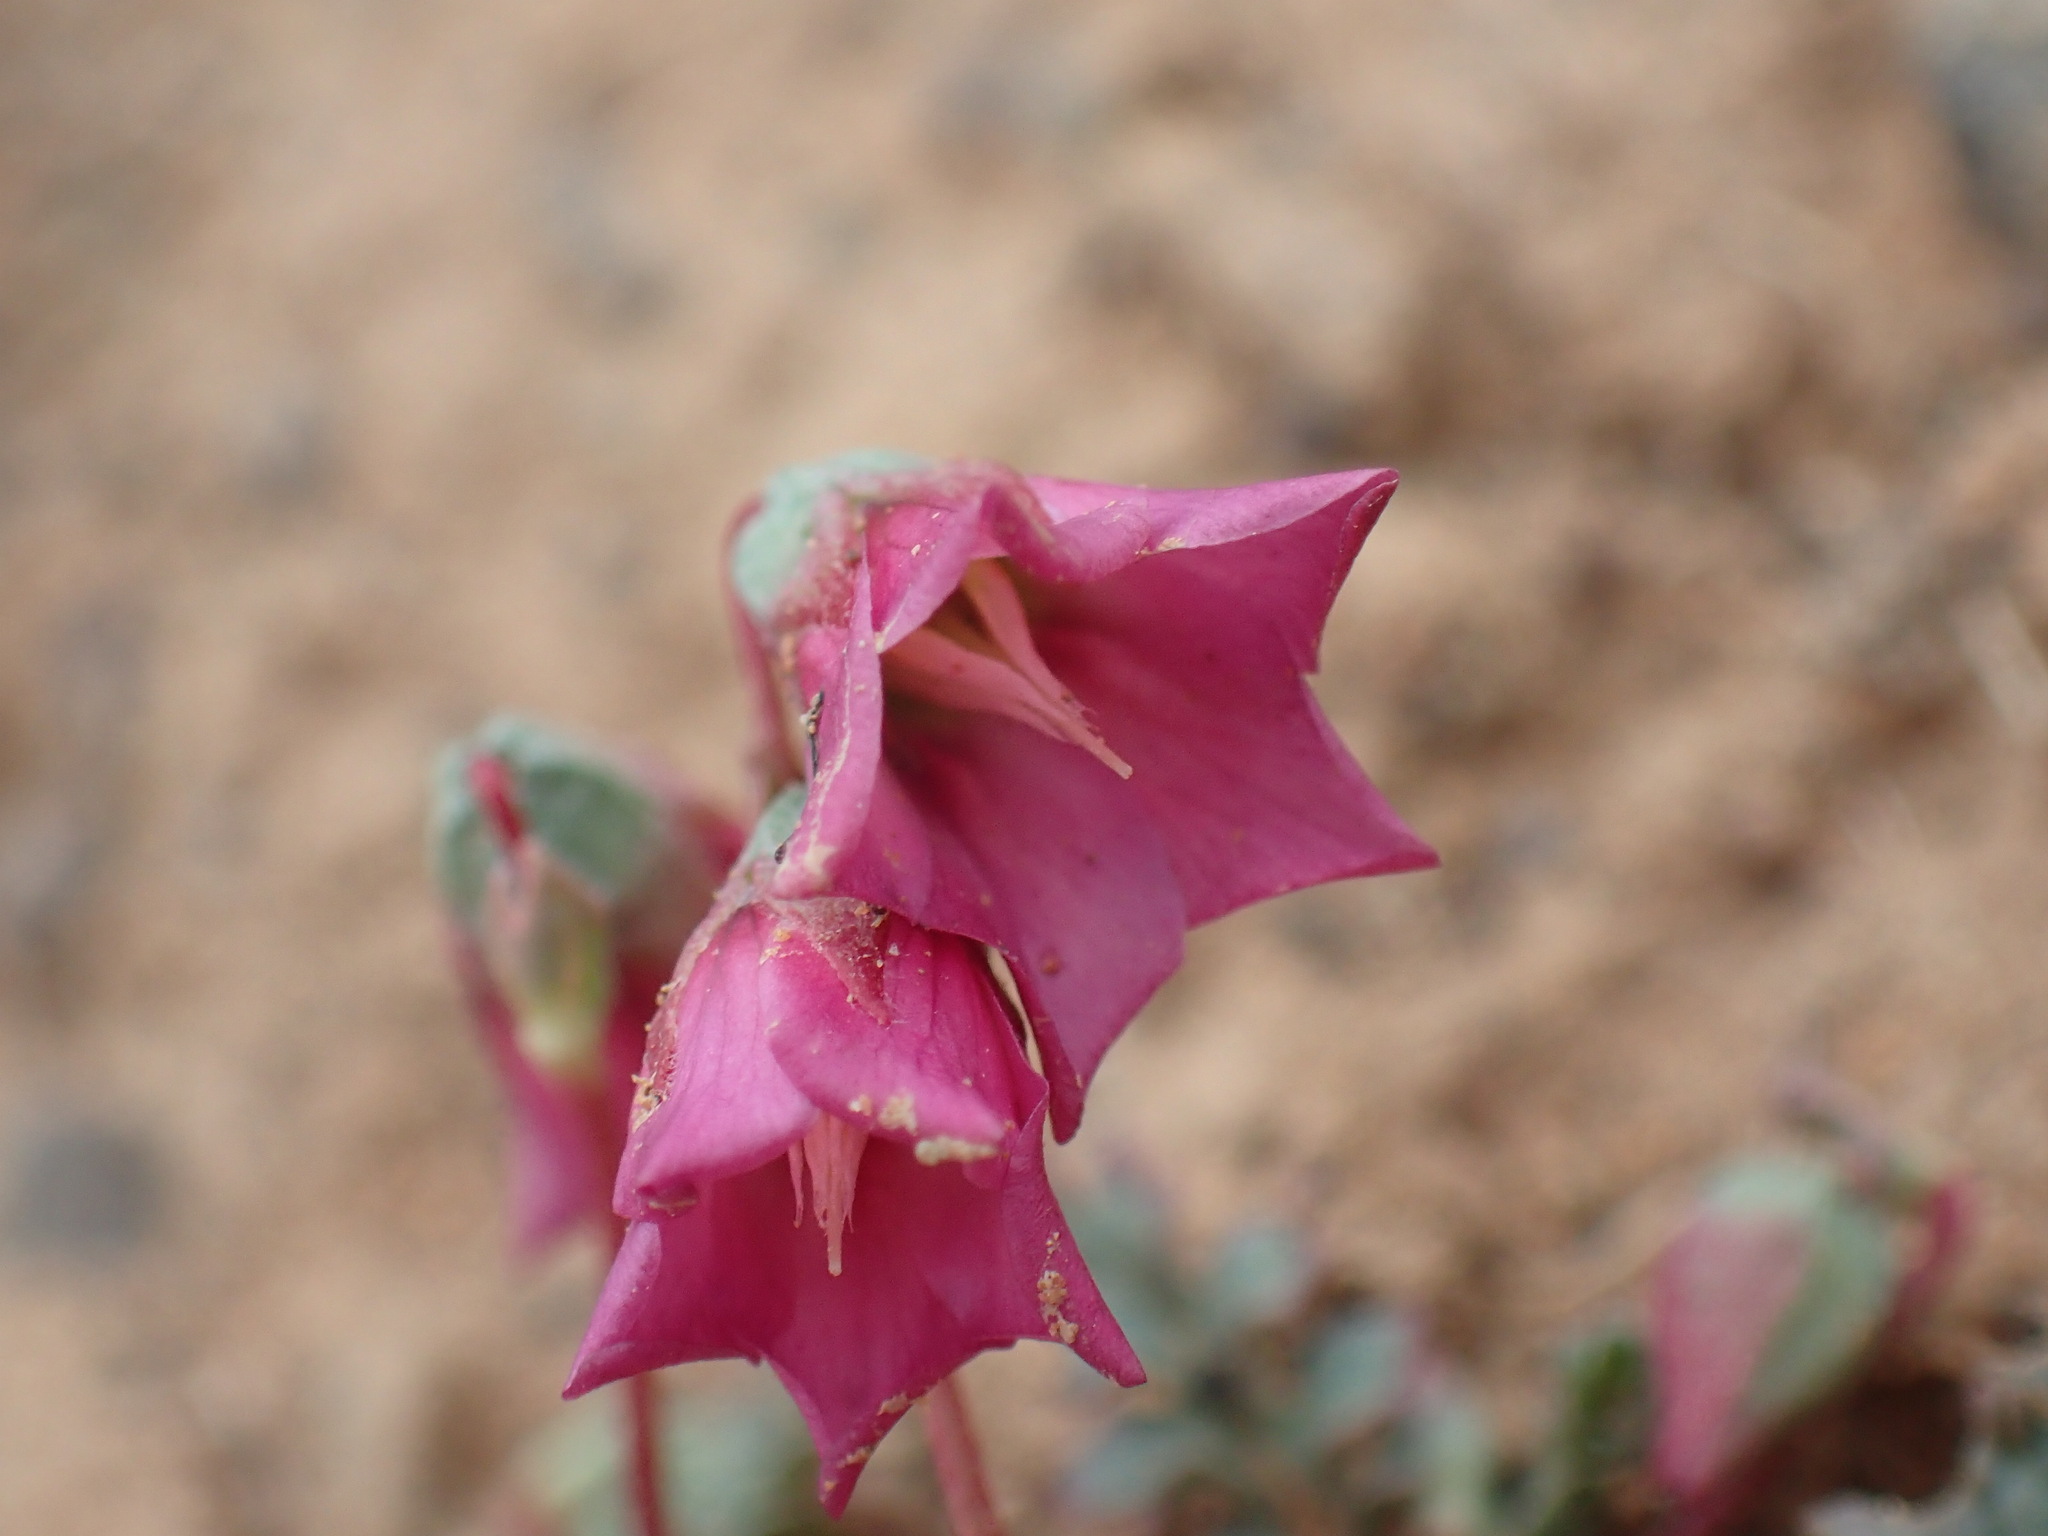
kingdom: Plantae
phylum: Tracheophyta
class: Magnoliopsida
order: Malvales
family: Malvaceae
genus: Hermannia
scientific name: Hermannia coccocarpa
